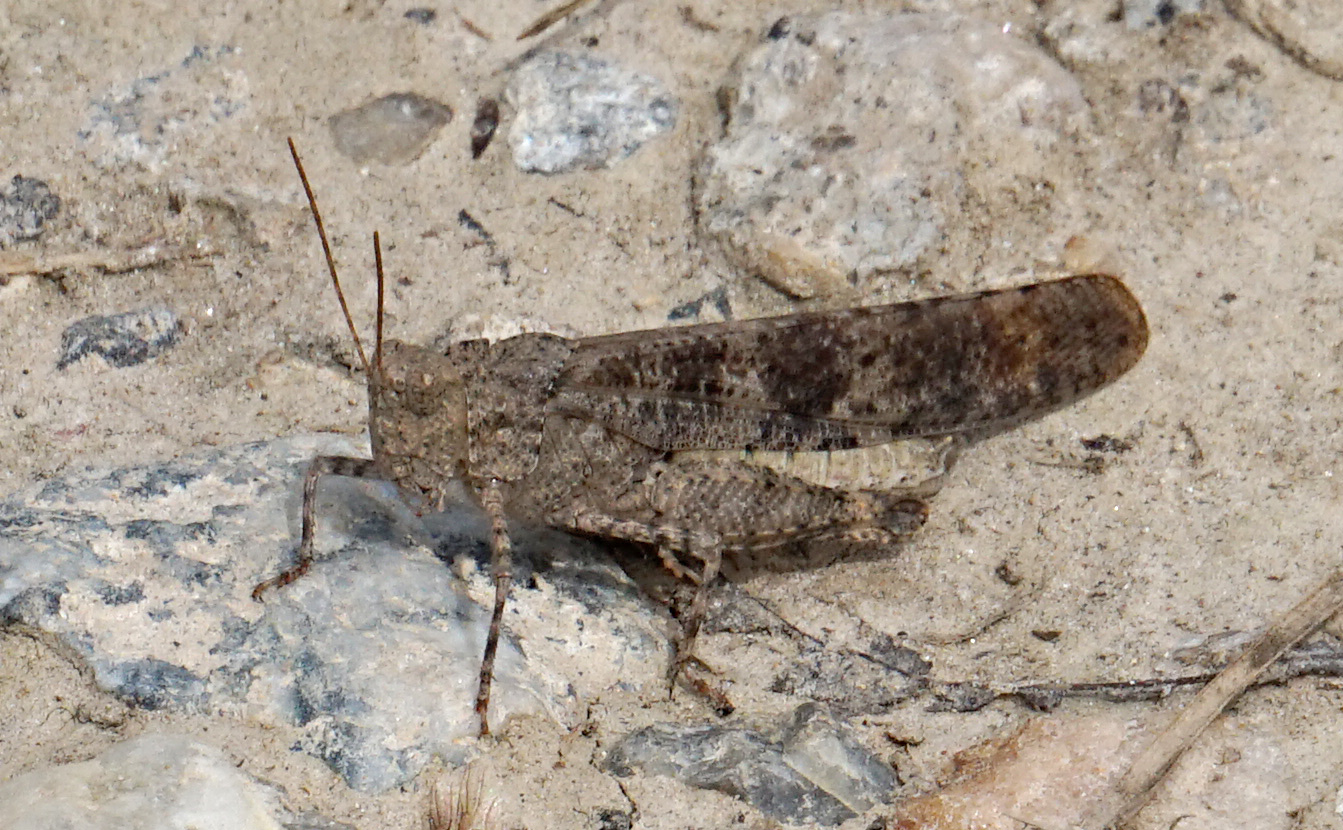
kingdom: Animalia
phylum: Arthropoda
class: Insecta
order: Orthoptera
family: Acrididae
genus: Dissosteira
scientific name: Dissosteira carolina
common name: Carolina grasshopper
